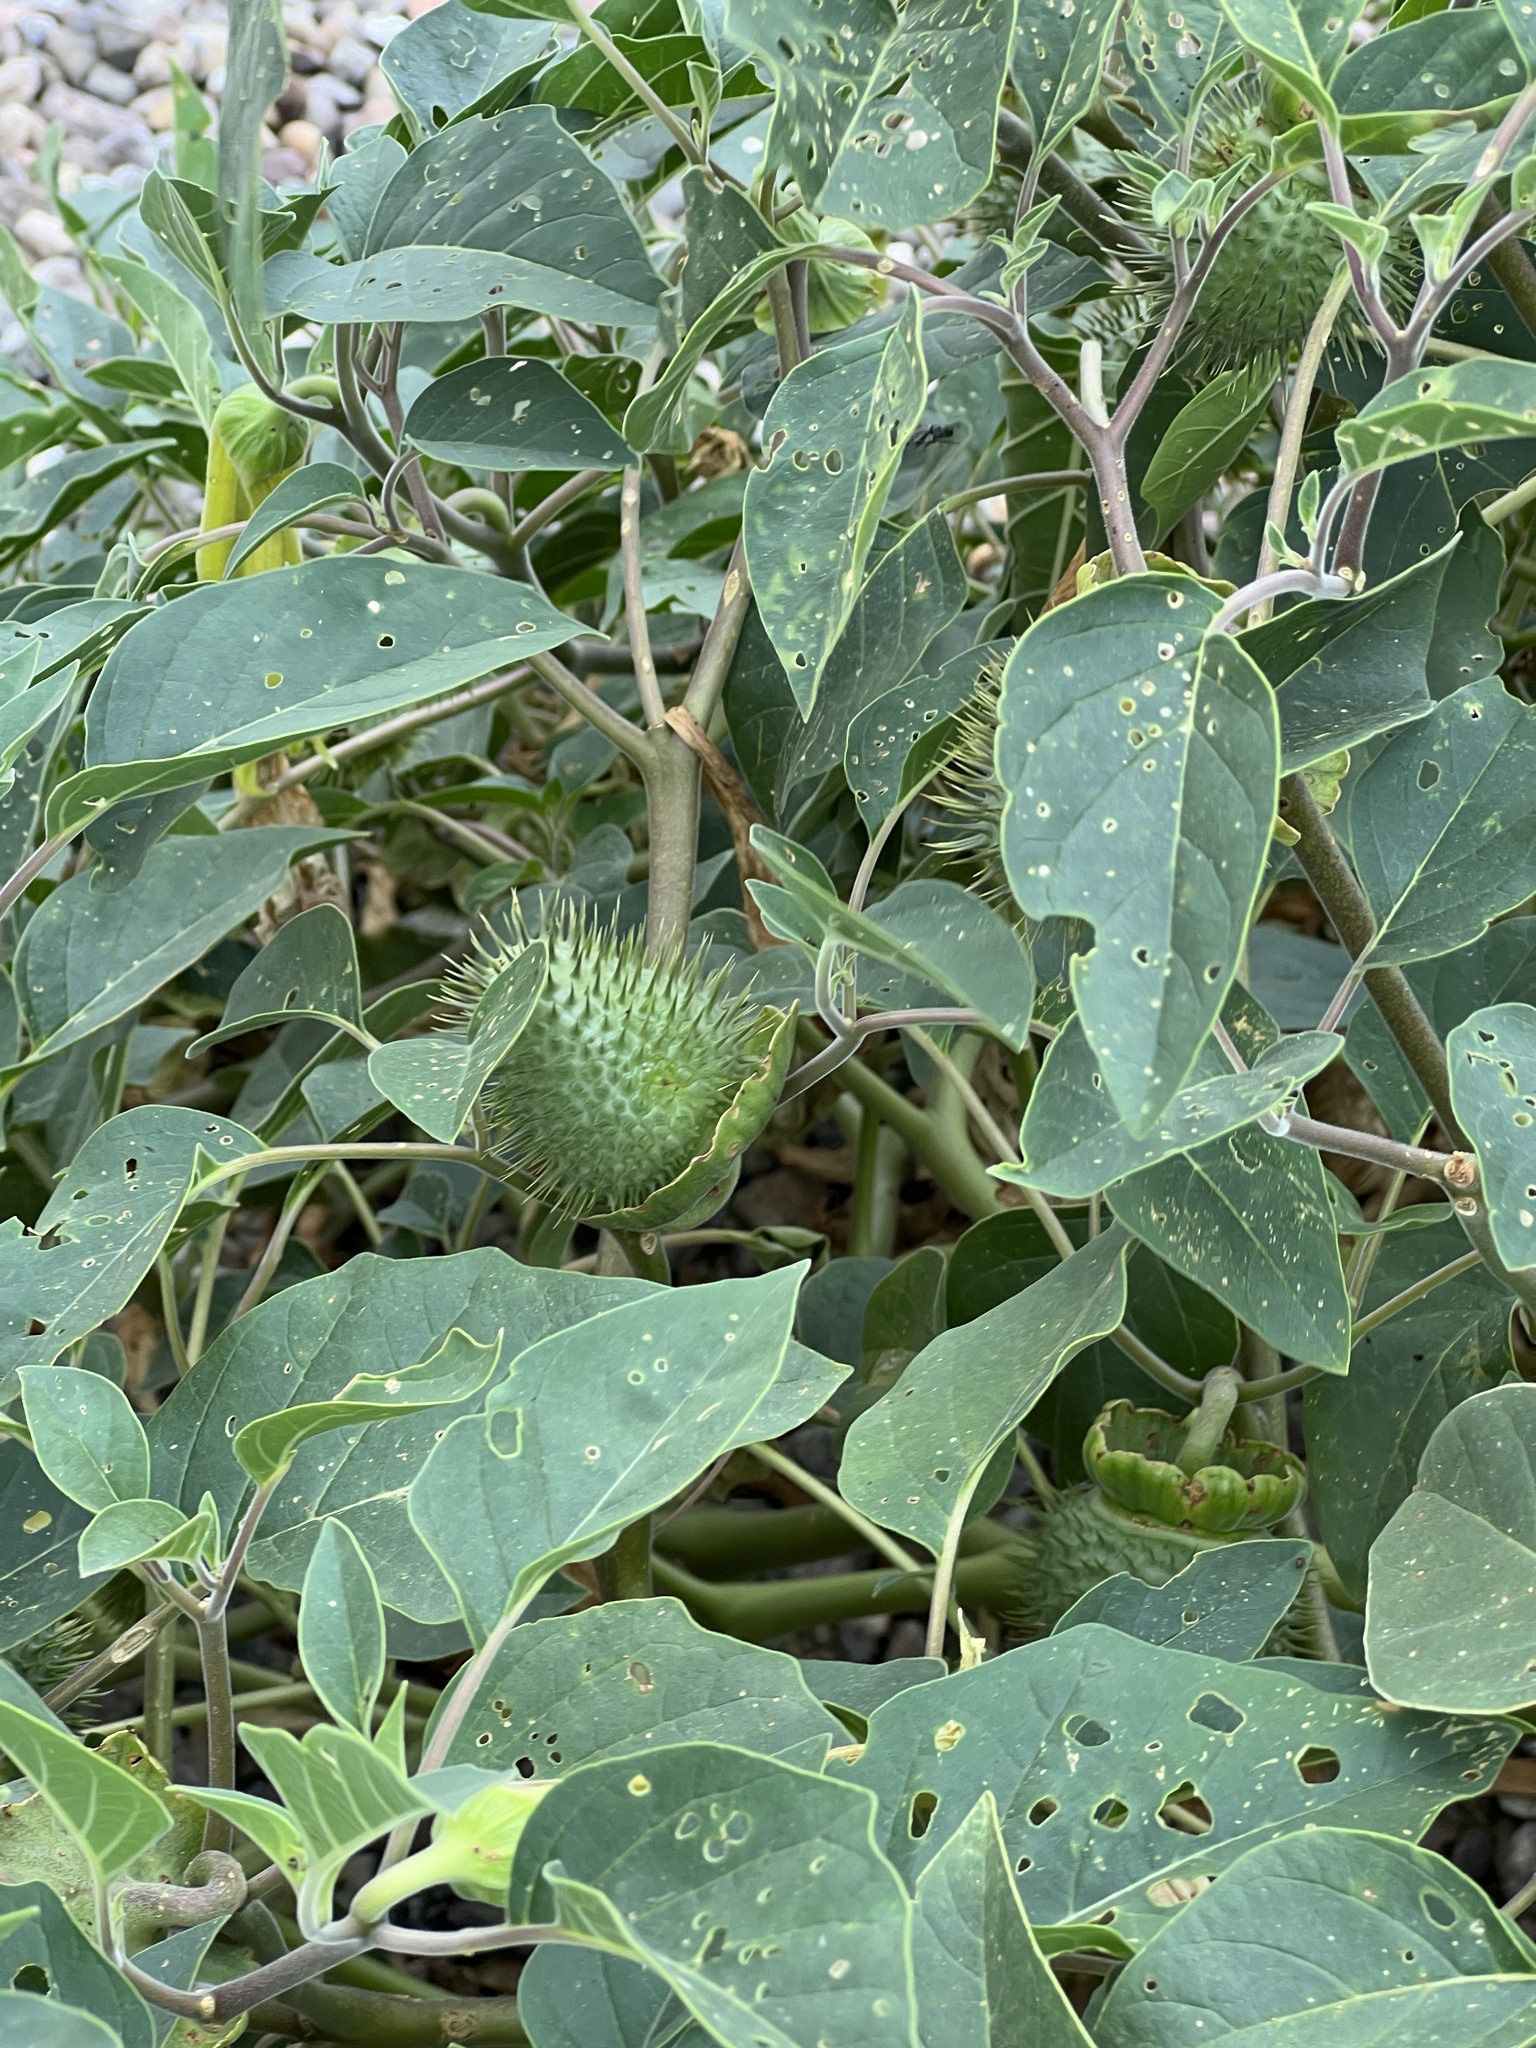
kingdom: Plantae
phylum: Tracheophyta
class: Magnoliopsida
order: Solanales
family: Solanaceae
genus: Datura
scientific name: Datura wrightii
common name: Sacred thorn-apple
